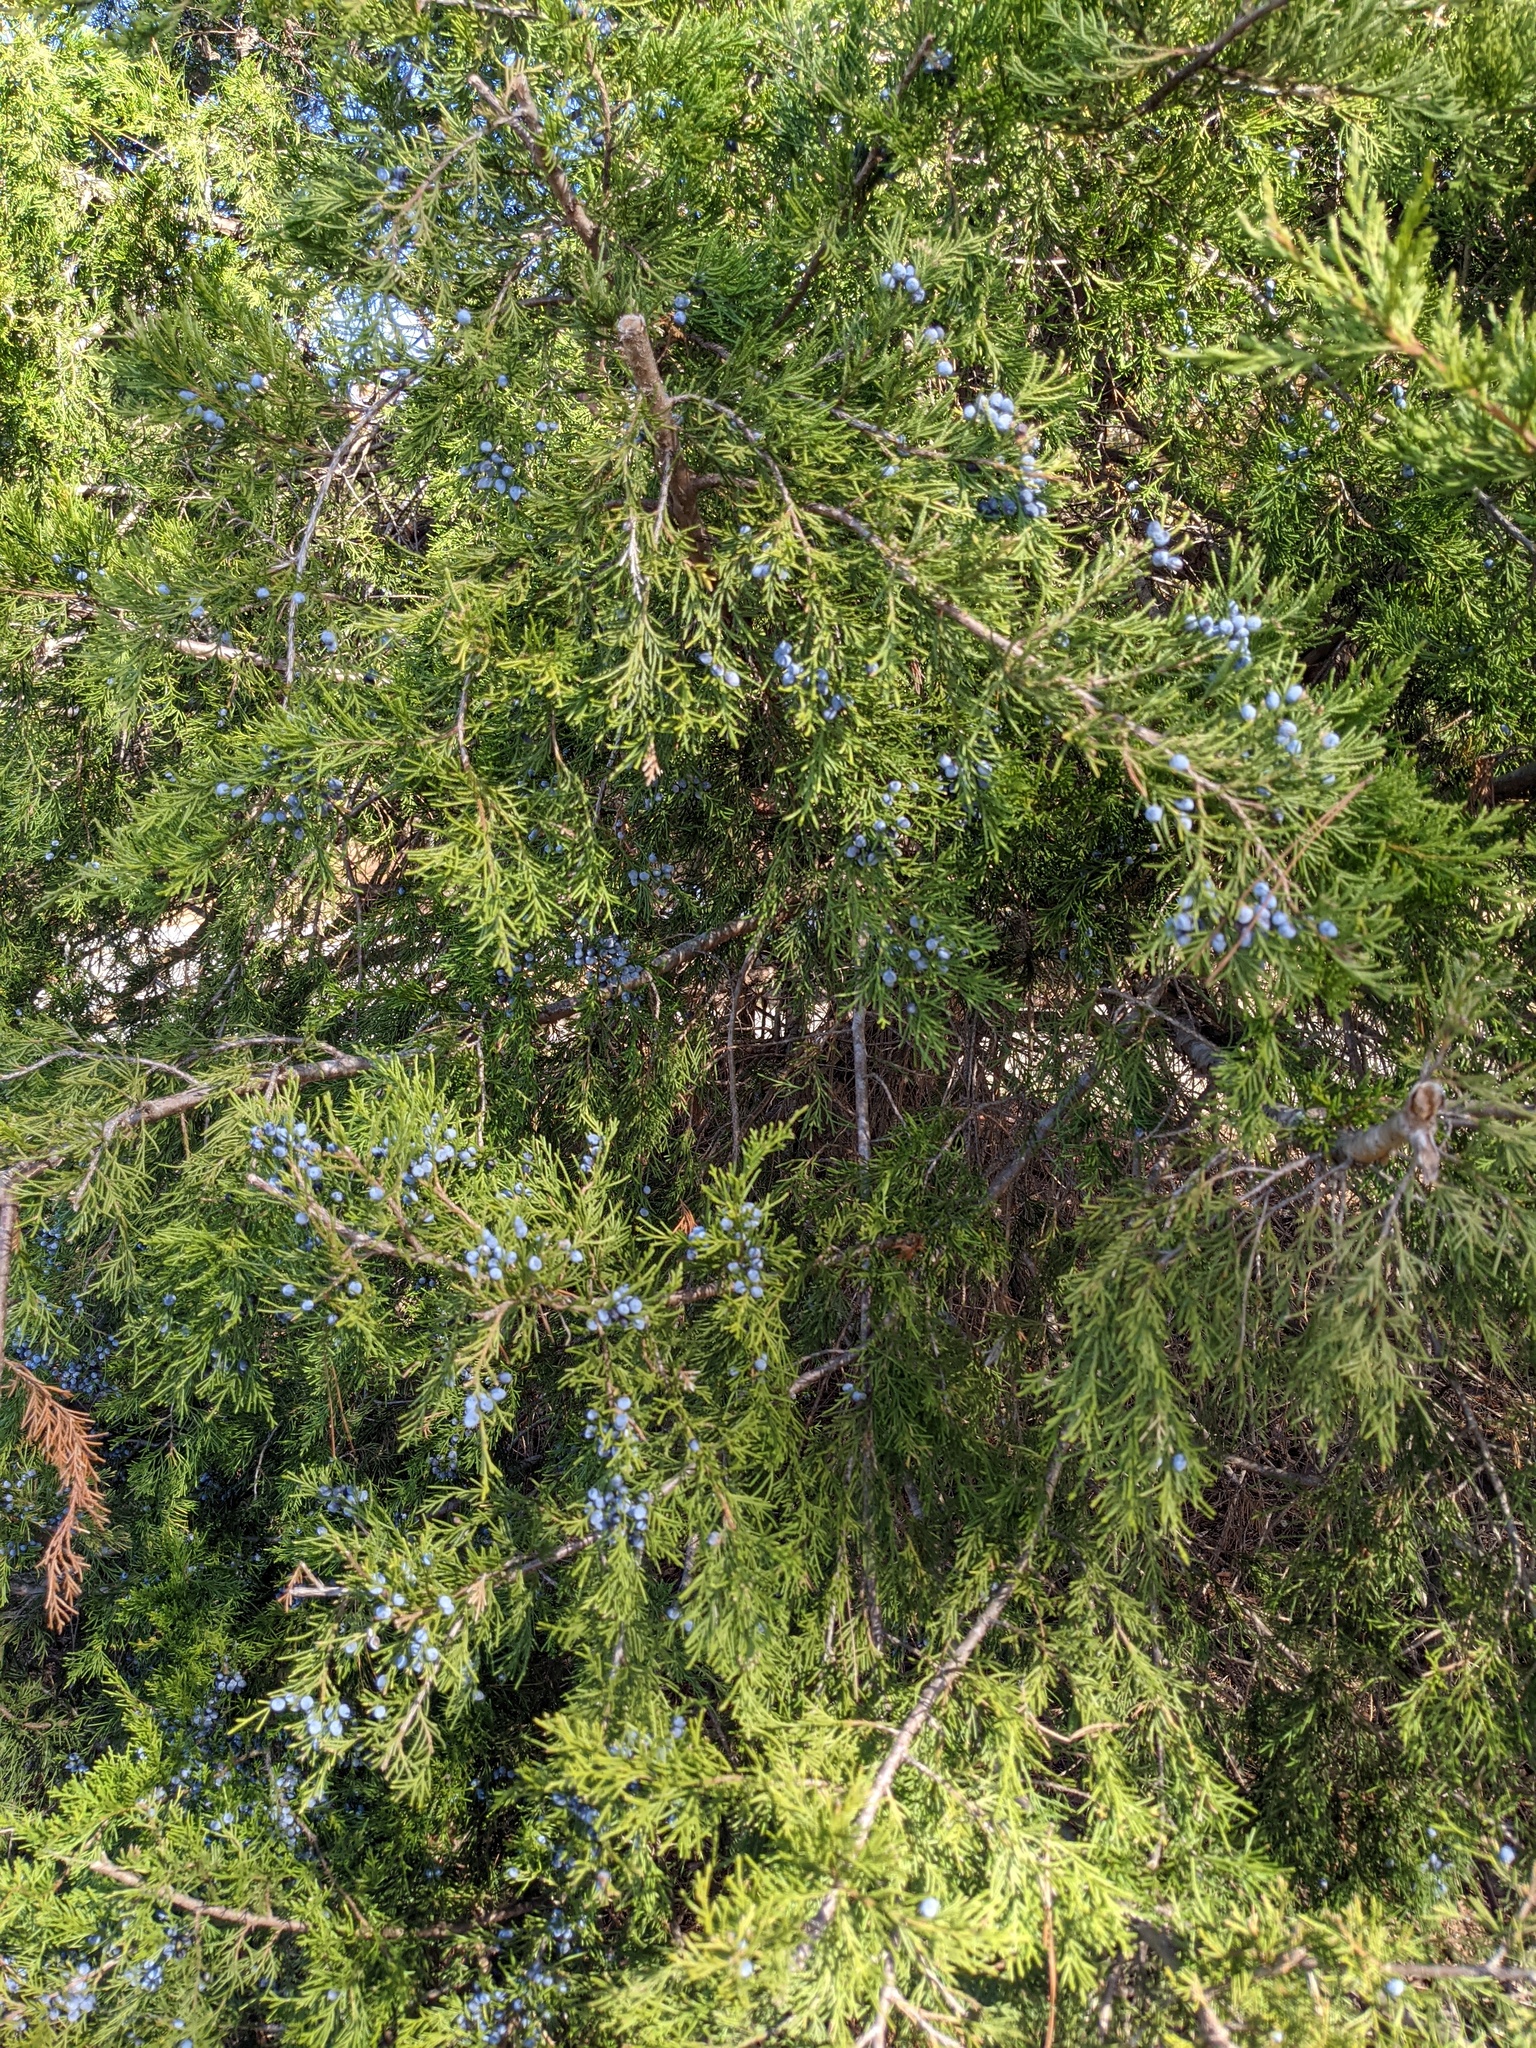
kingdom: Plantae
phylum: Tracheophyta
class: Pinopsida
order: Pinales
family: Cupressaceae
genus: Juniperus
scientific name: Juniperus virginiana
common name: Red juniper
